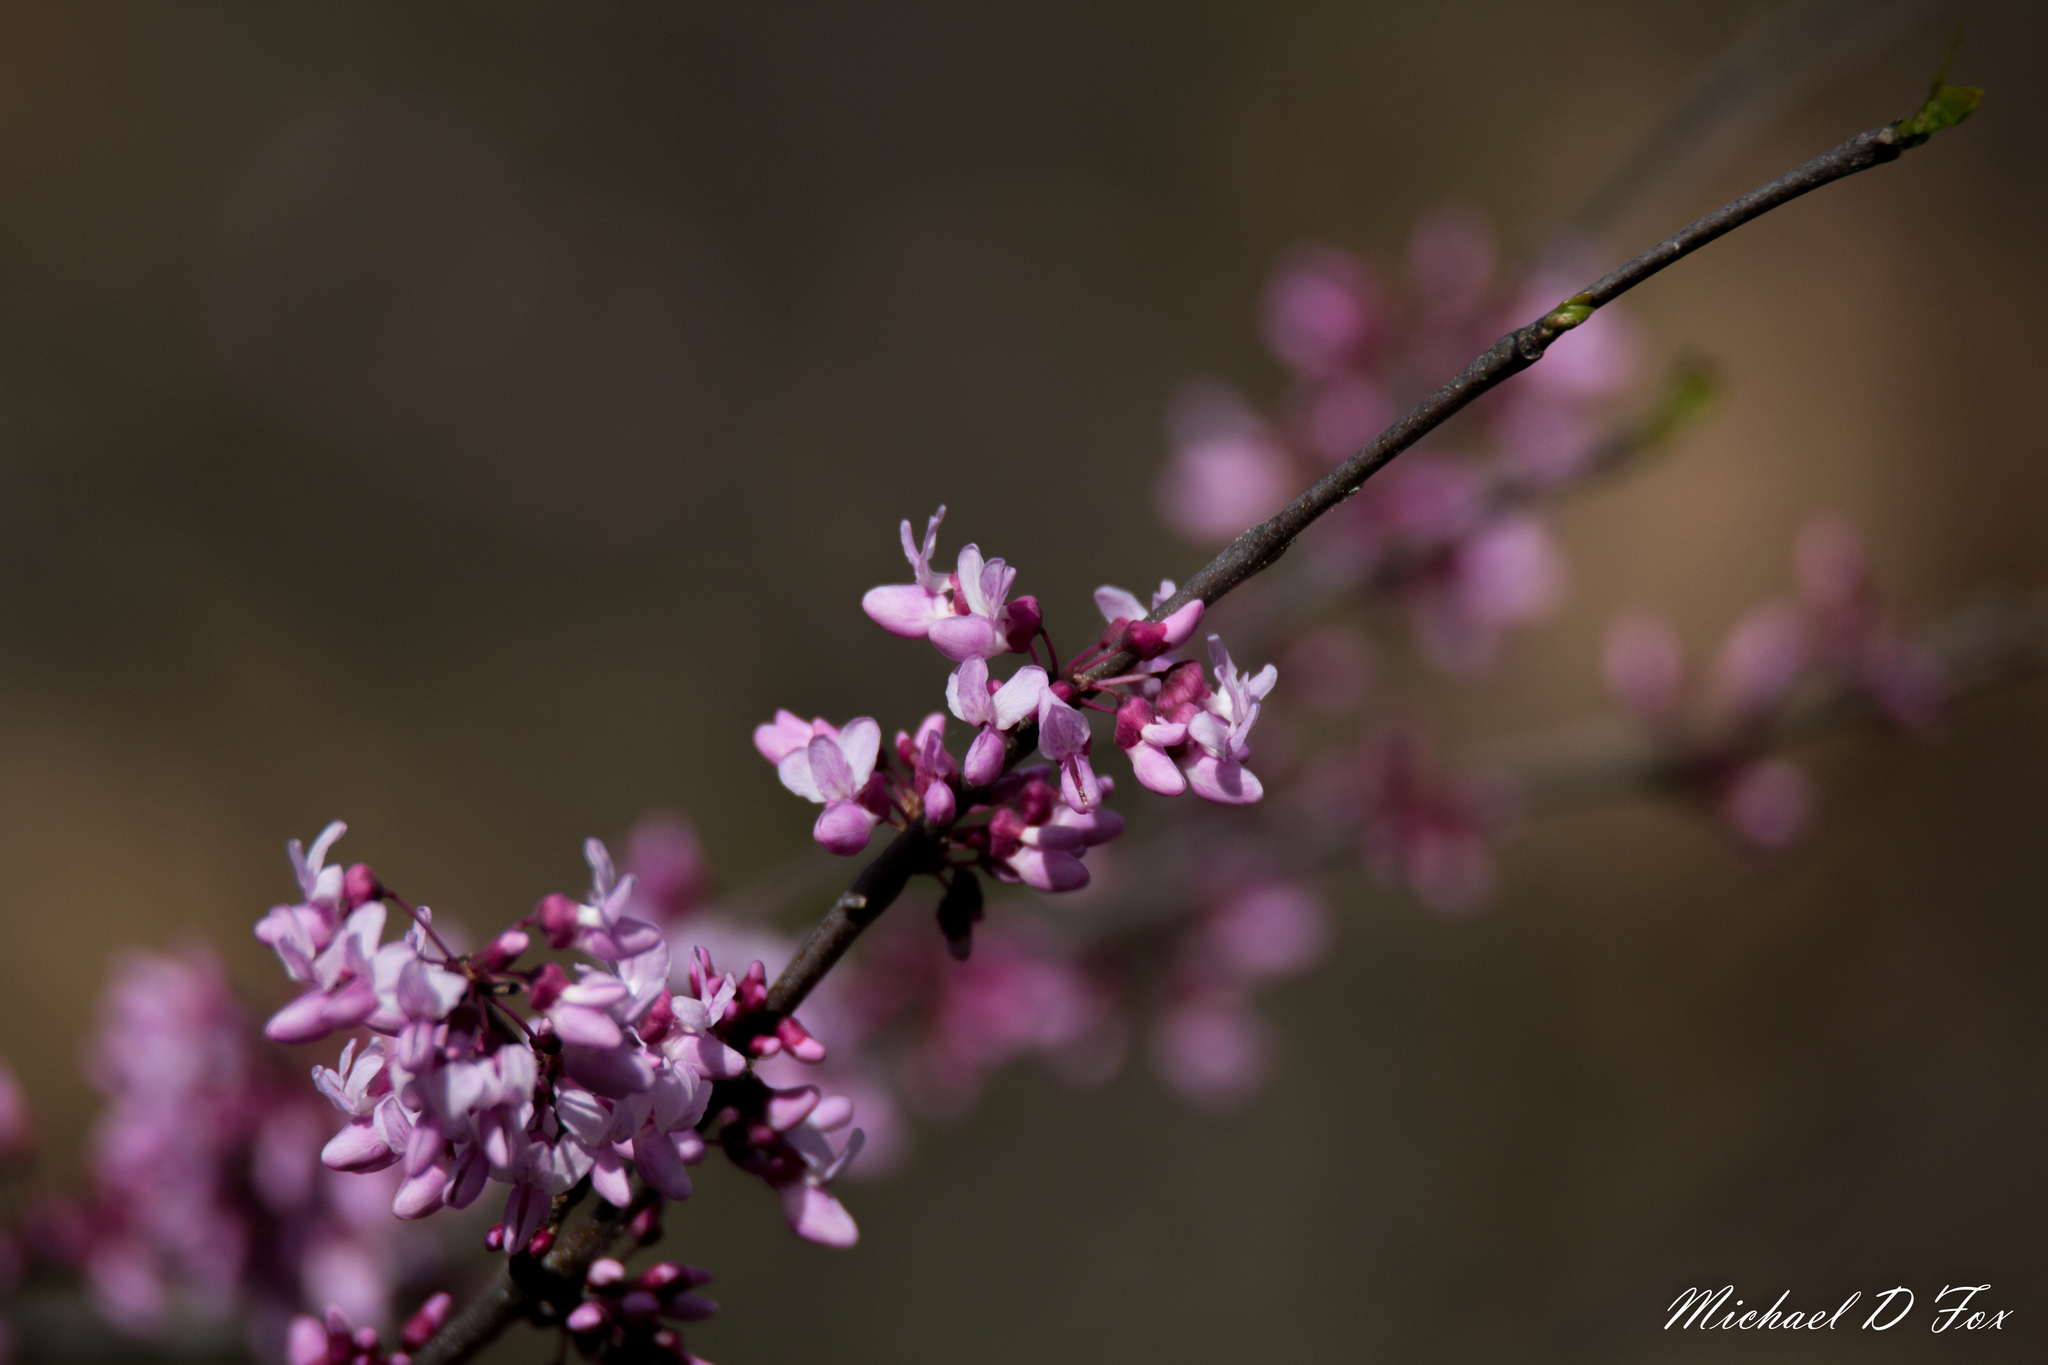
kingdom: Plantae
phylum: Tracheophyta
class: Magnoliopsida
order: Fabales
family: Fabaceae
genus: Cercis
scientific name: Cercis canadensis
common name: Eastern redbud
